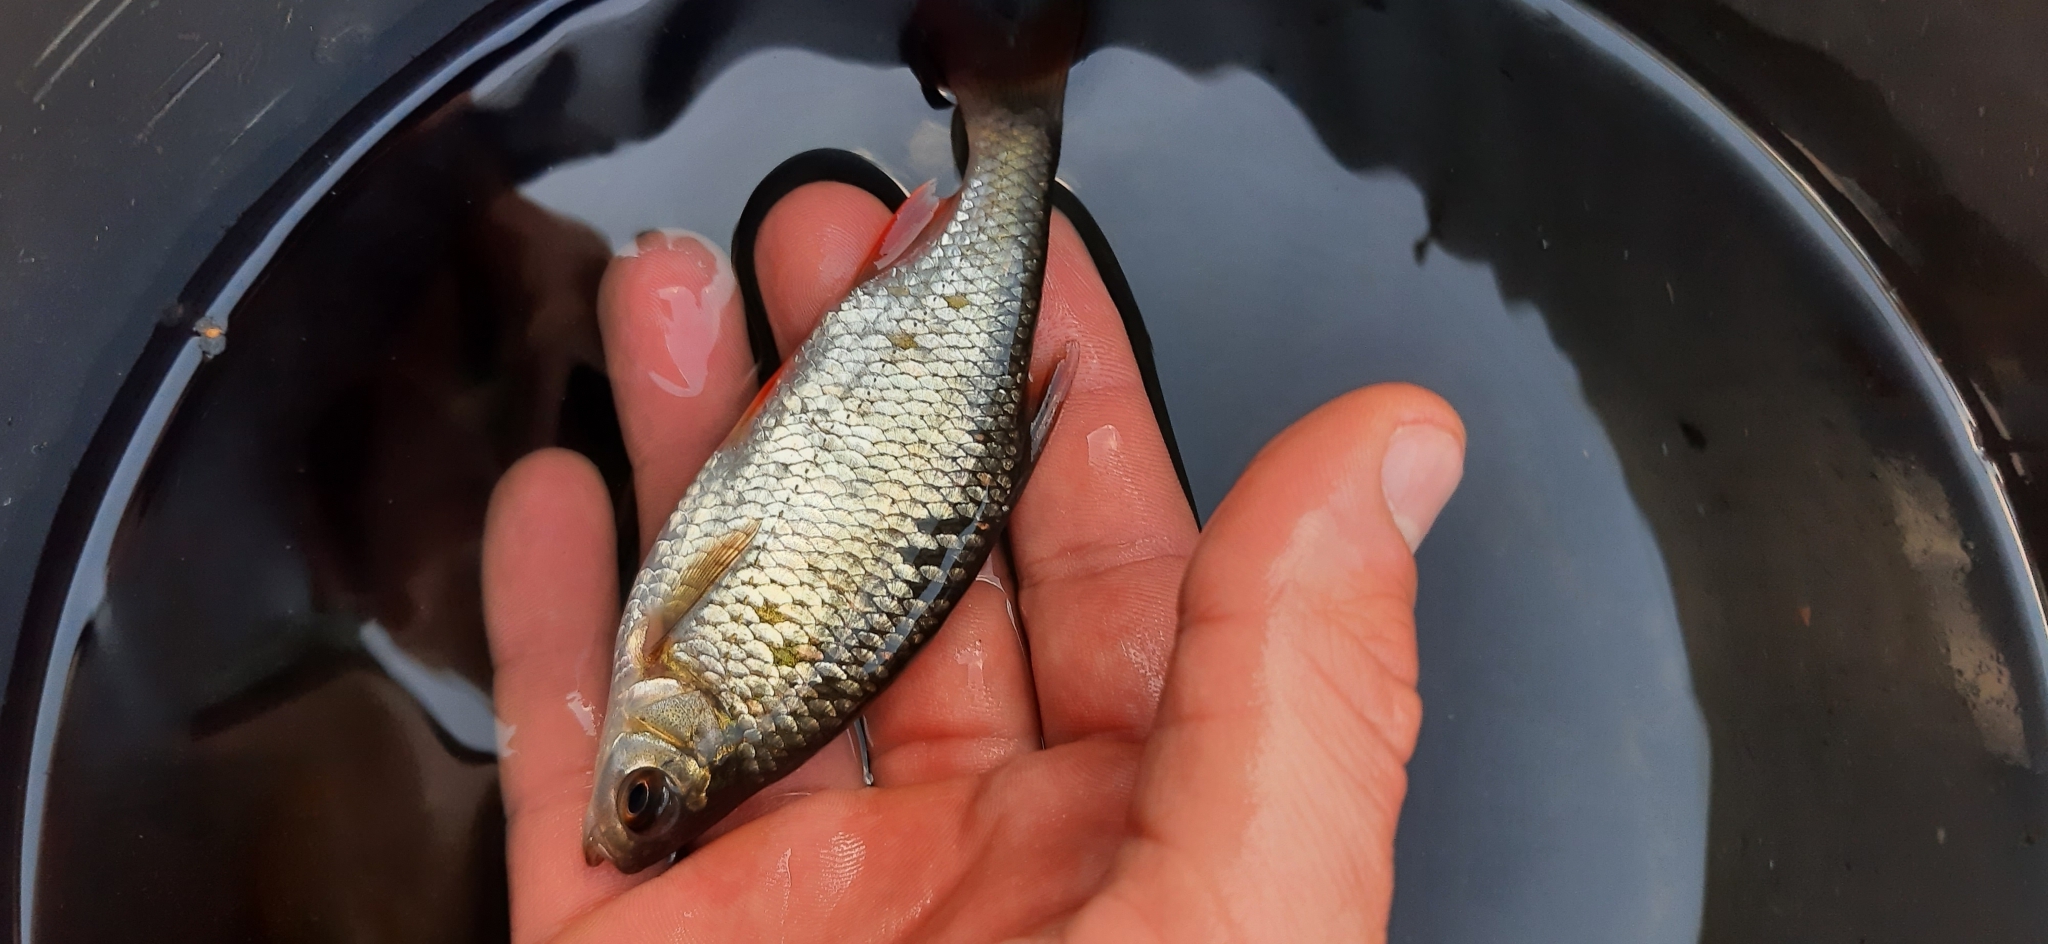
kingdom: Animalia
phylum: Chordata
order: Cypriniformes
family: Cyprinidae
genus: Scardinius
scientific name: Scardinius erythrophthalmus
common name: Rudd
